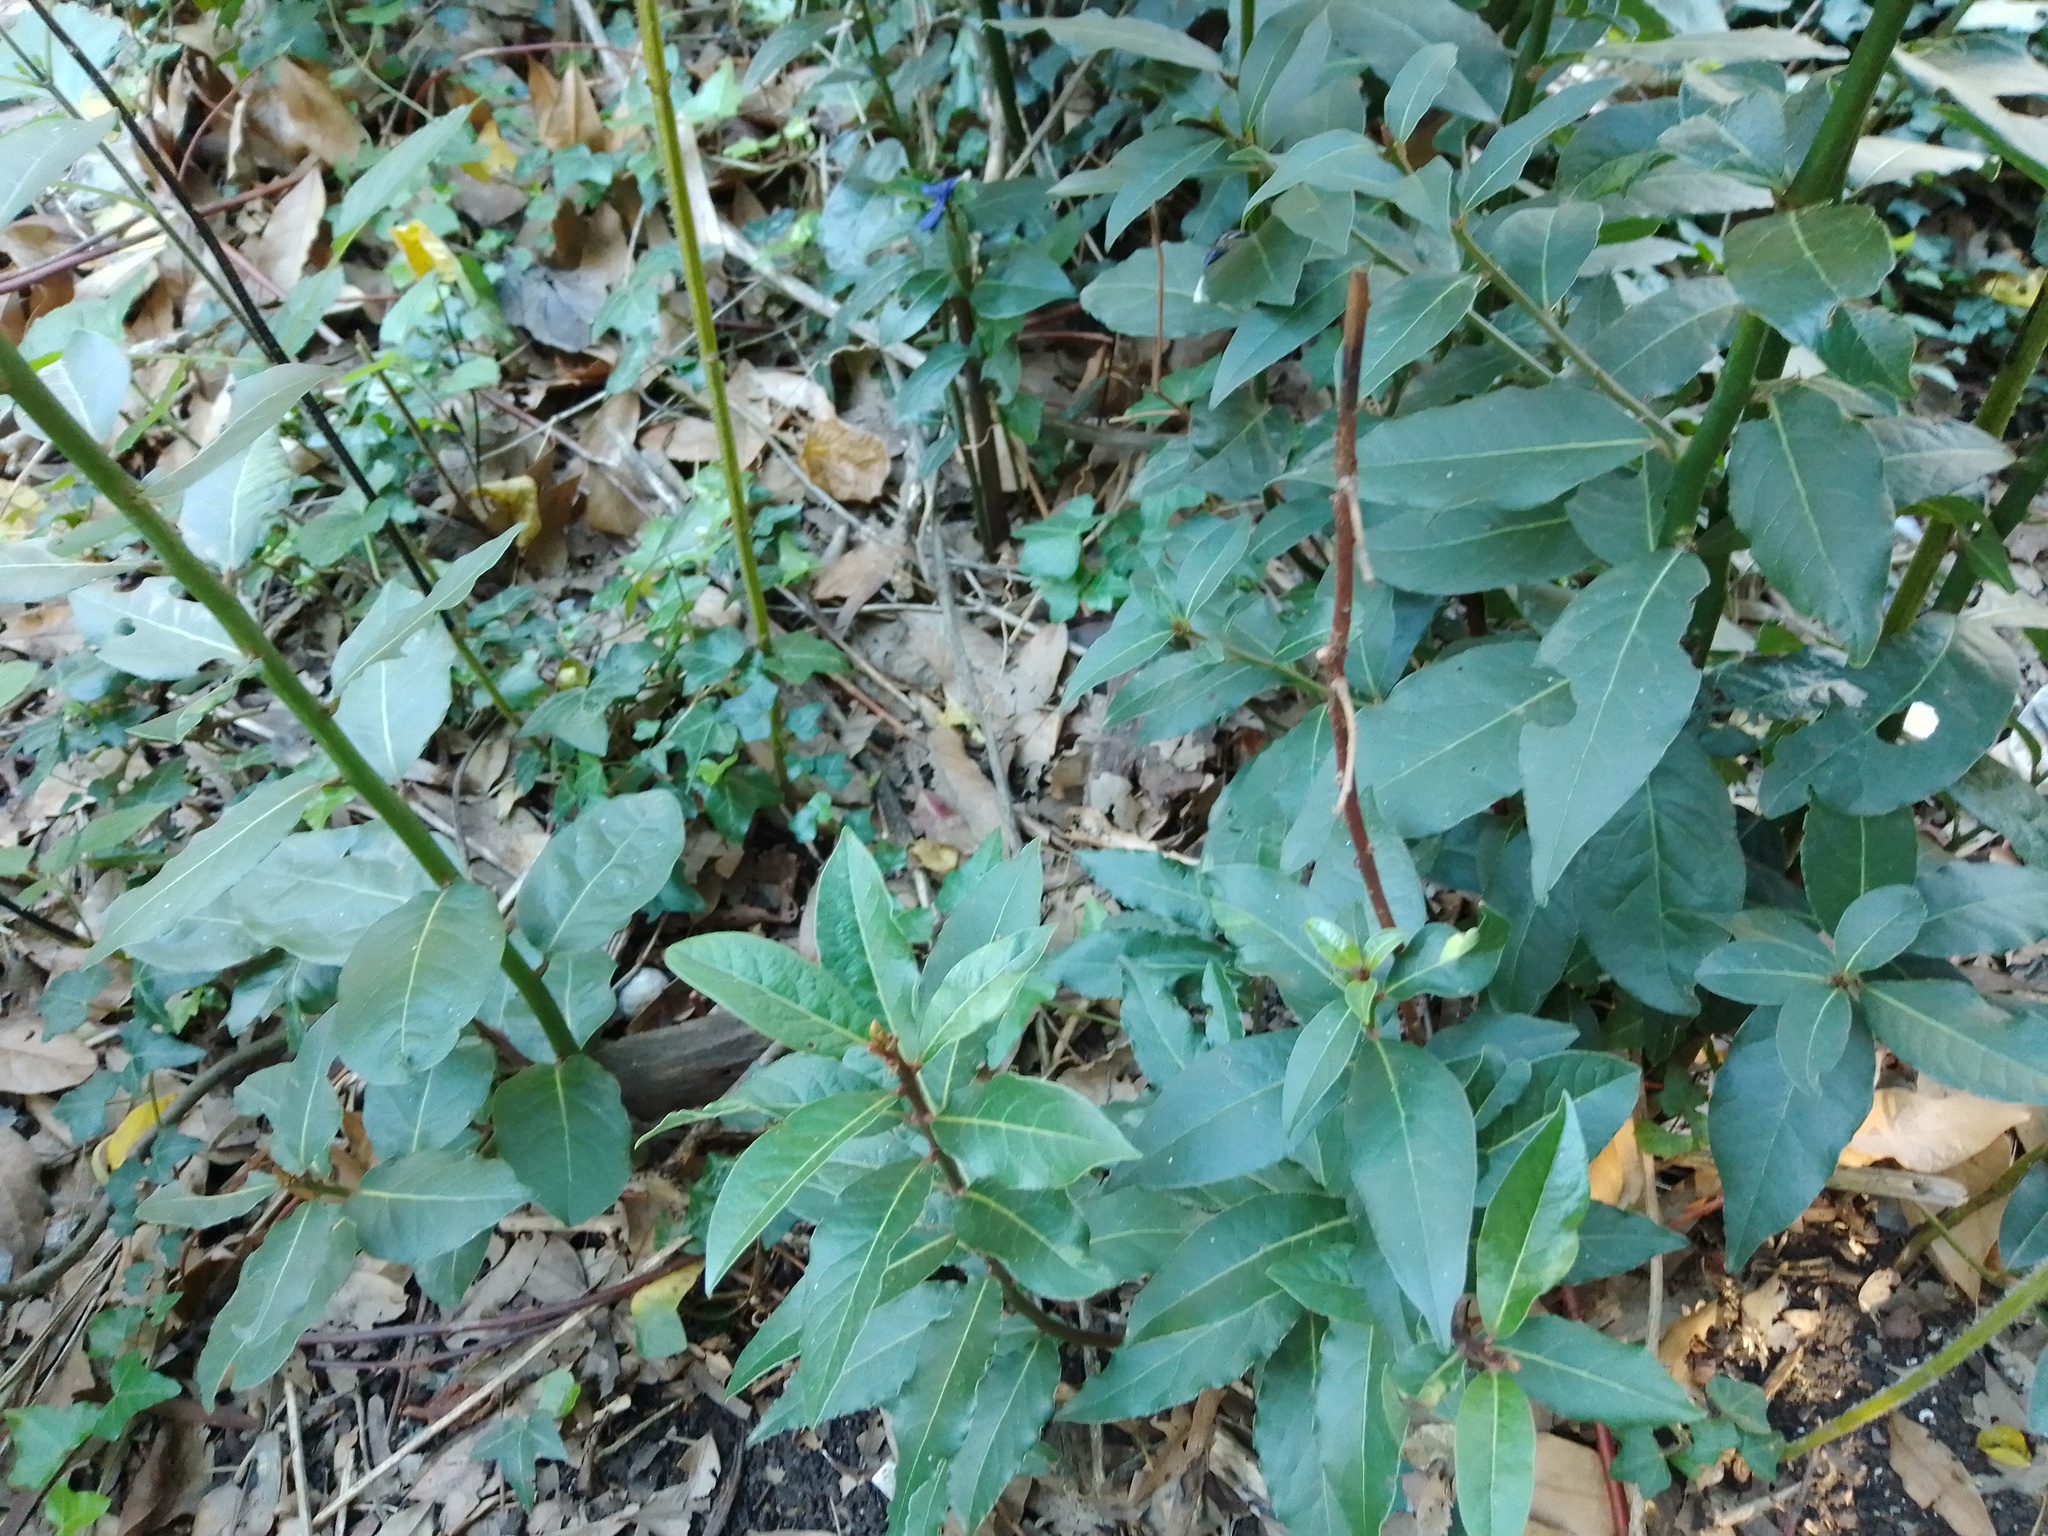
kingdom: Plantae
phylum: Tracheophyta
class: Magnoliopsida
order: Laurales
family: Lauraceae
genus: Laurus
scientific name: Laurus nobilis
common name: Bay
